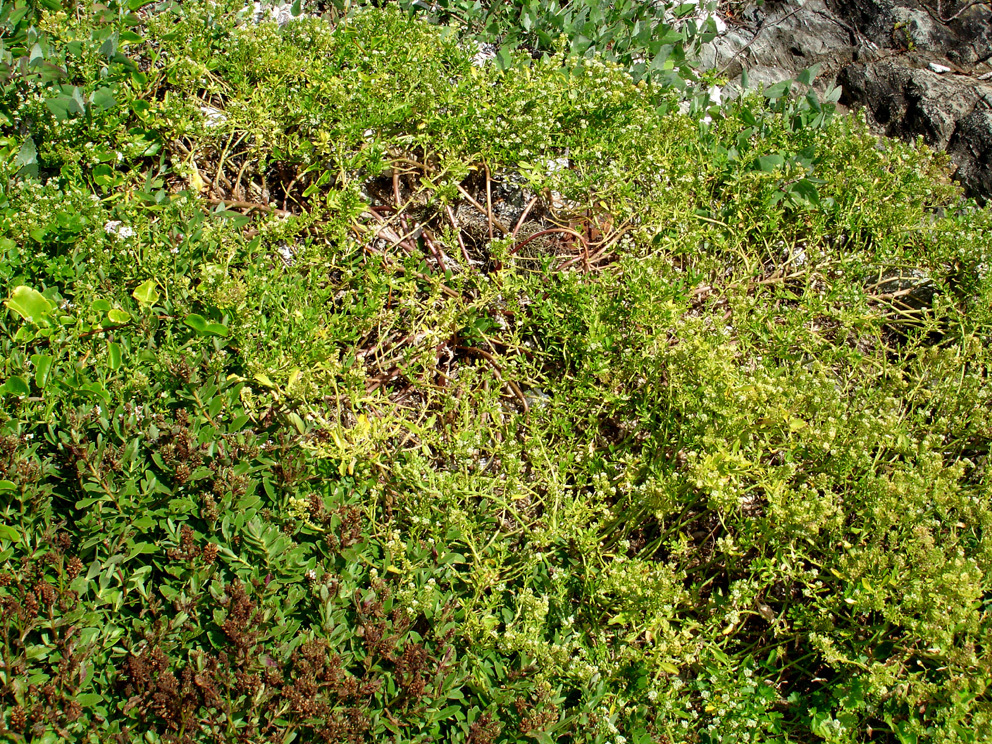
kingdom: Plantae
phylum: Tracheophyta
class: Magnoliopsida
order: Brassicales
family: Brassicaceae
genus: Lepidium
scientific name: Lepidium rekohuense
